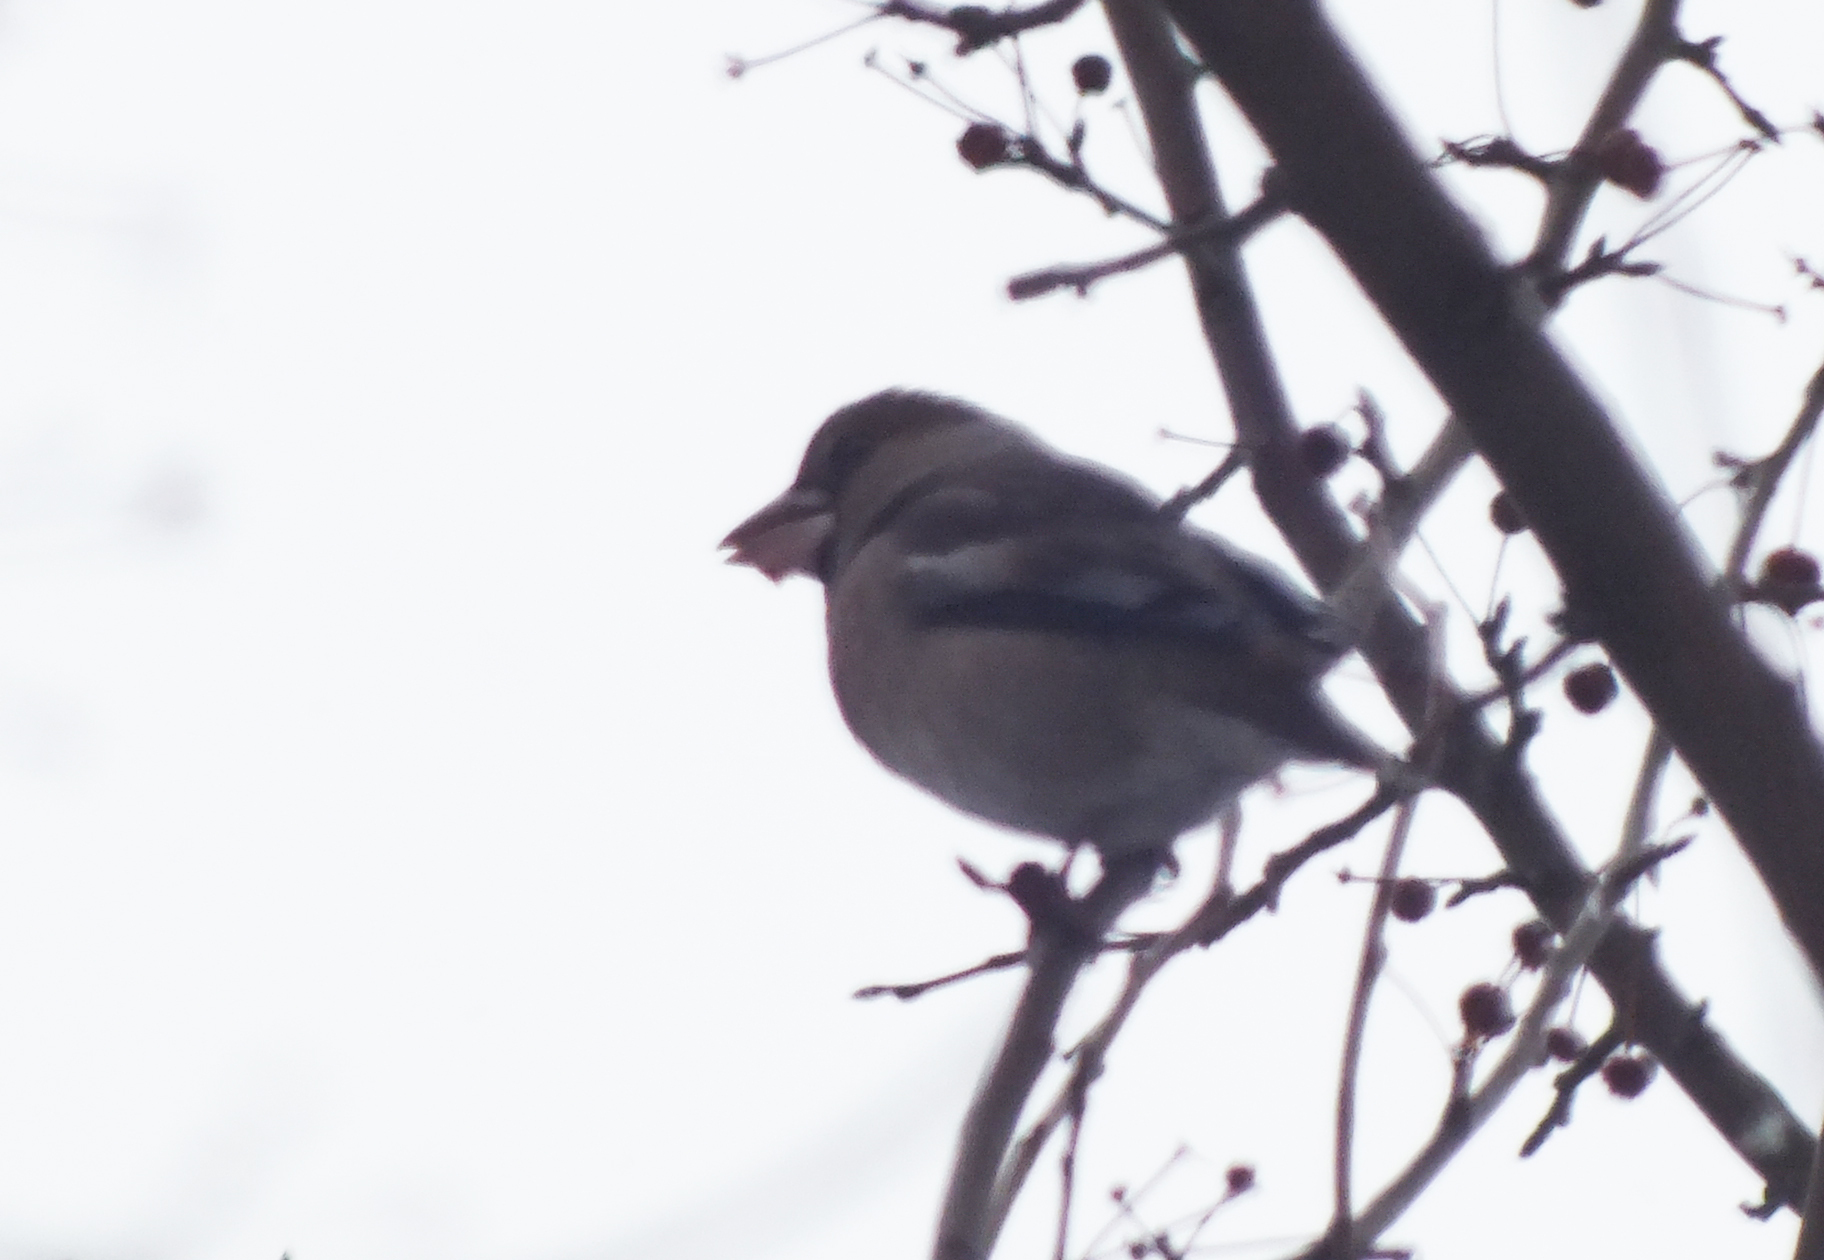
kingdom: Animalia
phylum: Chordata
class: Aves
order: Passeriformes
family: Fringillidae
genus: Coccothraustes
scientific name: Coccothraustes coccothraustes
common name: Hawfinch
